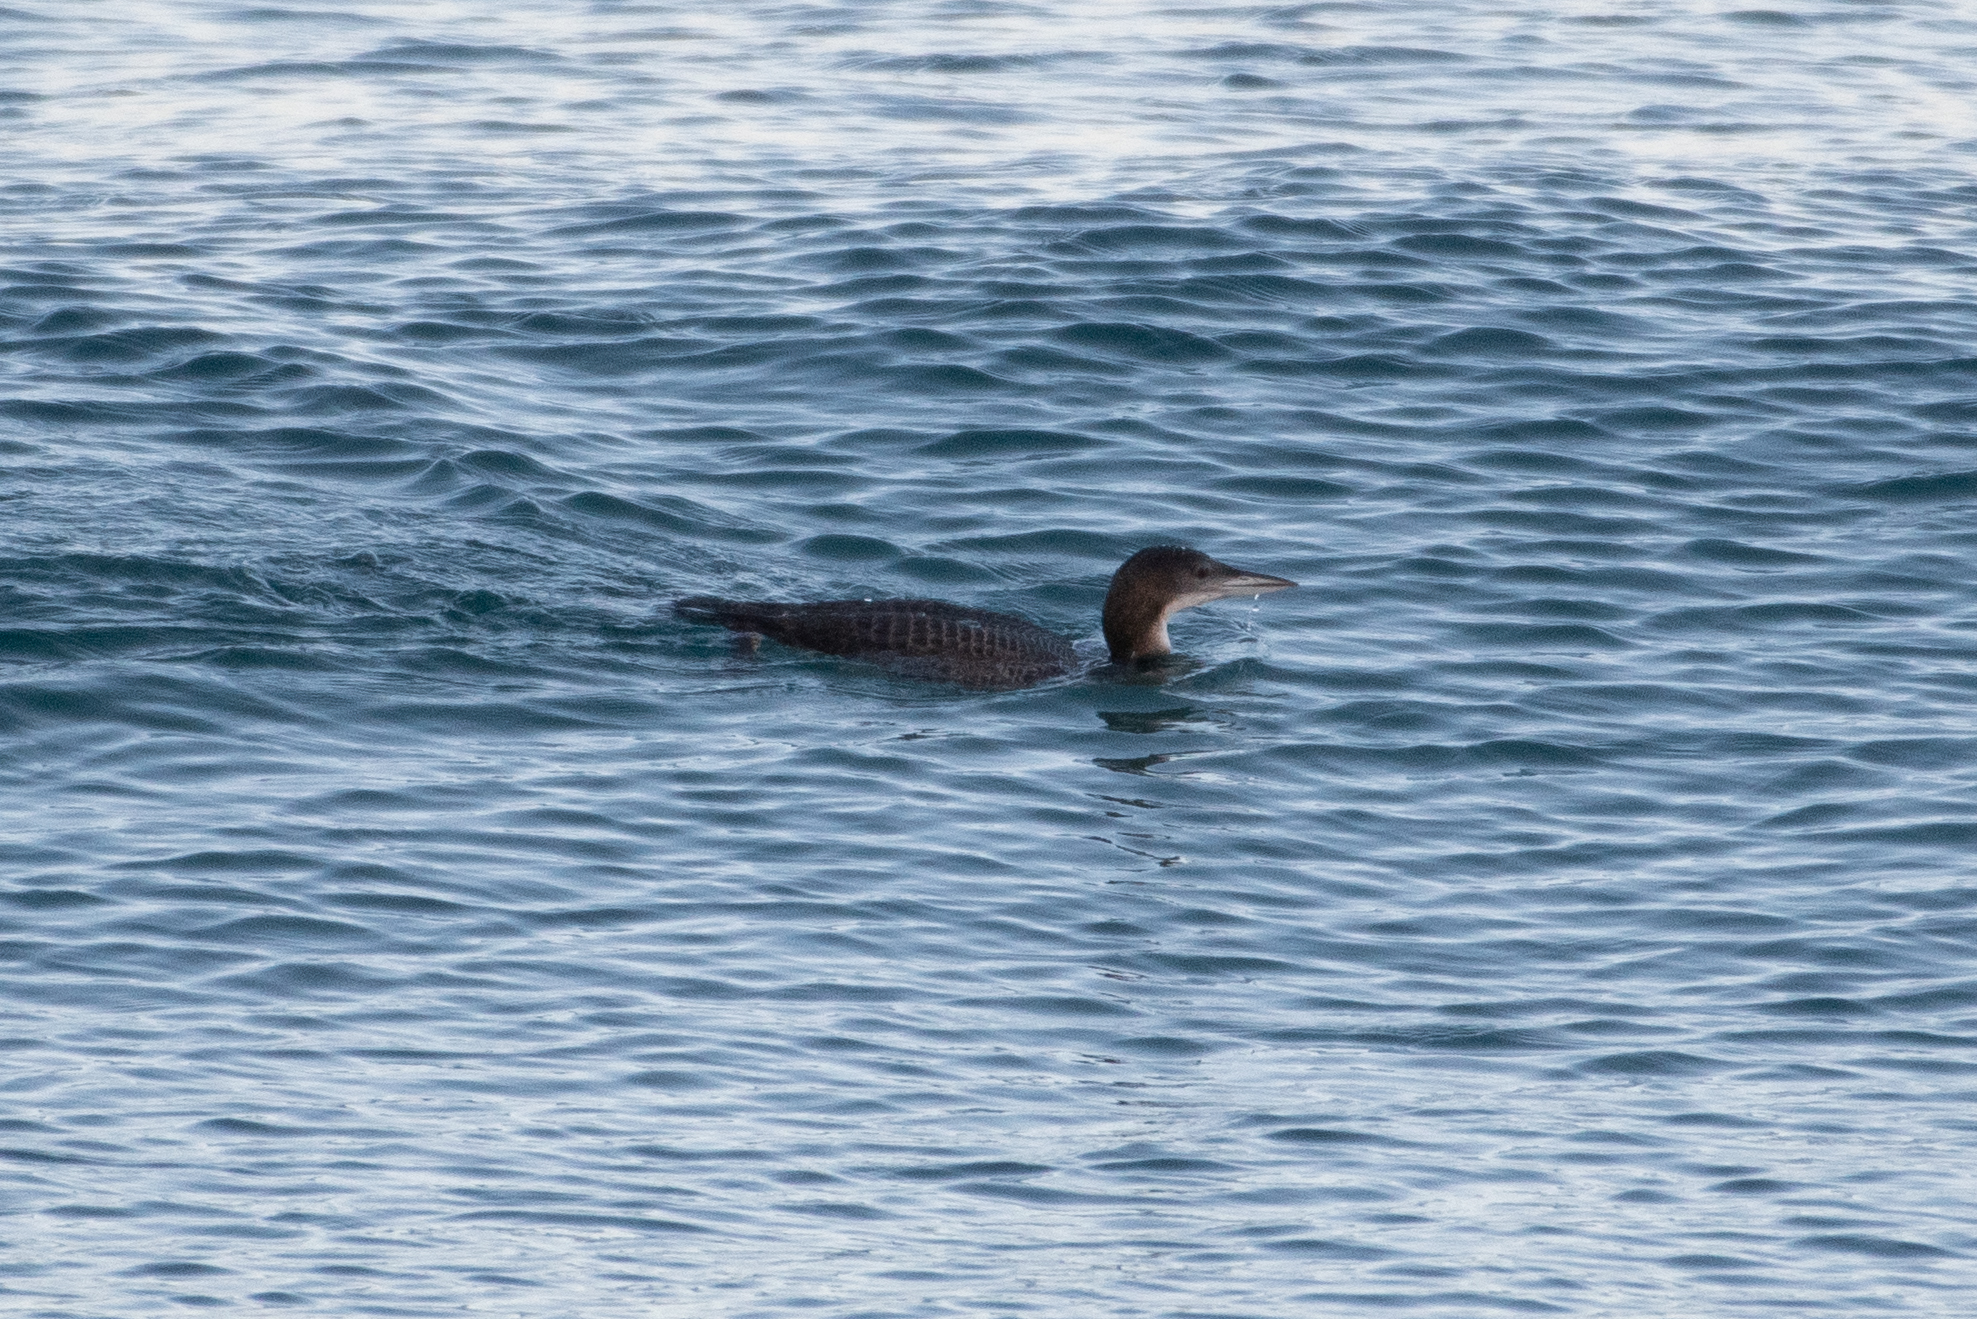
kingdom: Animalia
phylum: Chordata
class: Aves
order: Gaviiformes
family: Gaviidae
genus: Gavia
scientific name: Gavia immer
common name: Common loon
